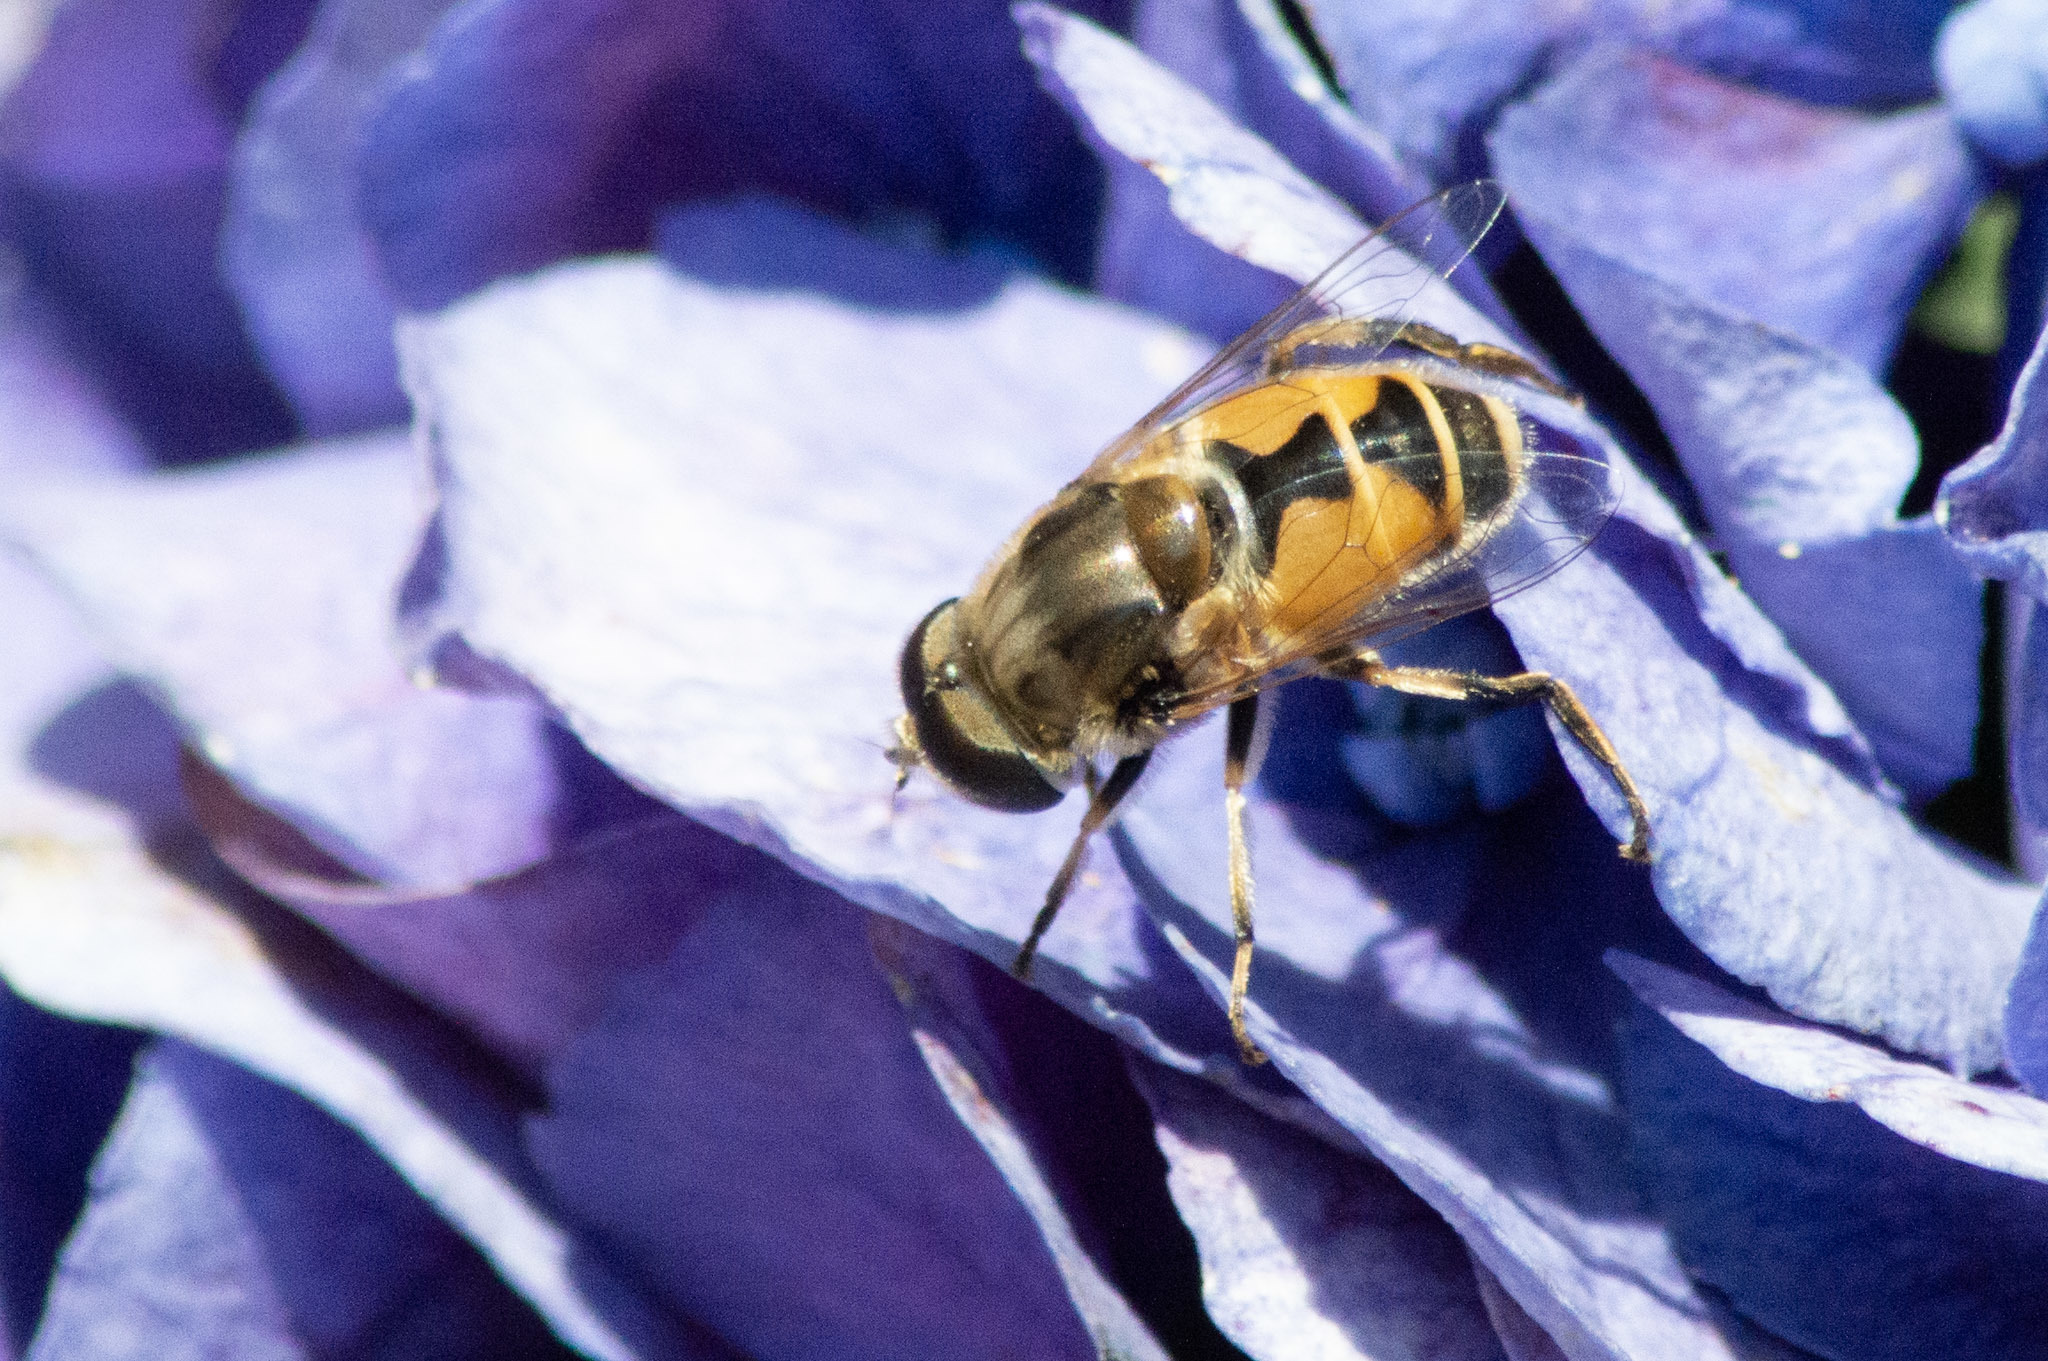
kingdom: Animalia
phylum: Arthropoda
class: Insecta
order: Diptera
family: Syrphidae
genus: Eristalis
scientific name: Eristalis arbustorum
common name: Hover fly
